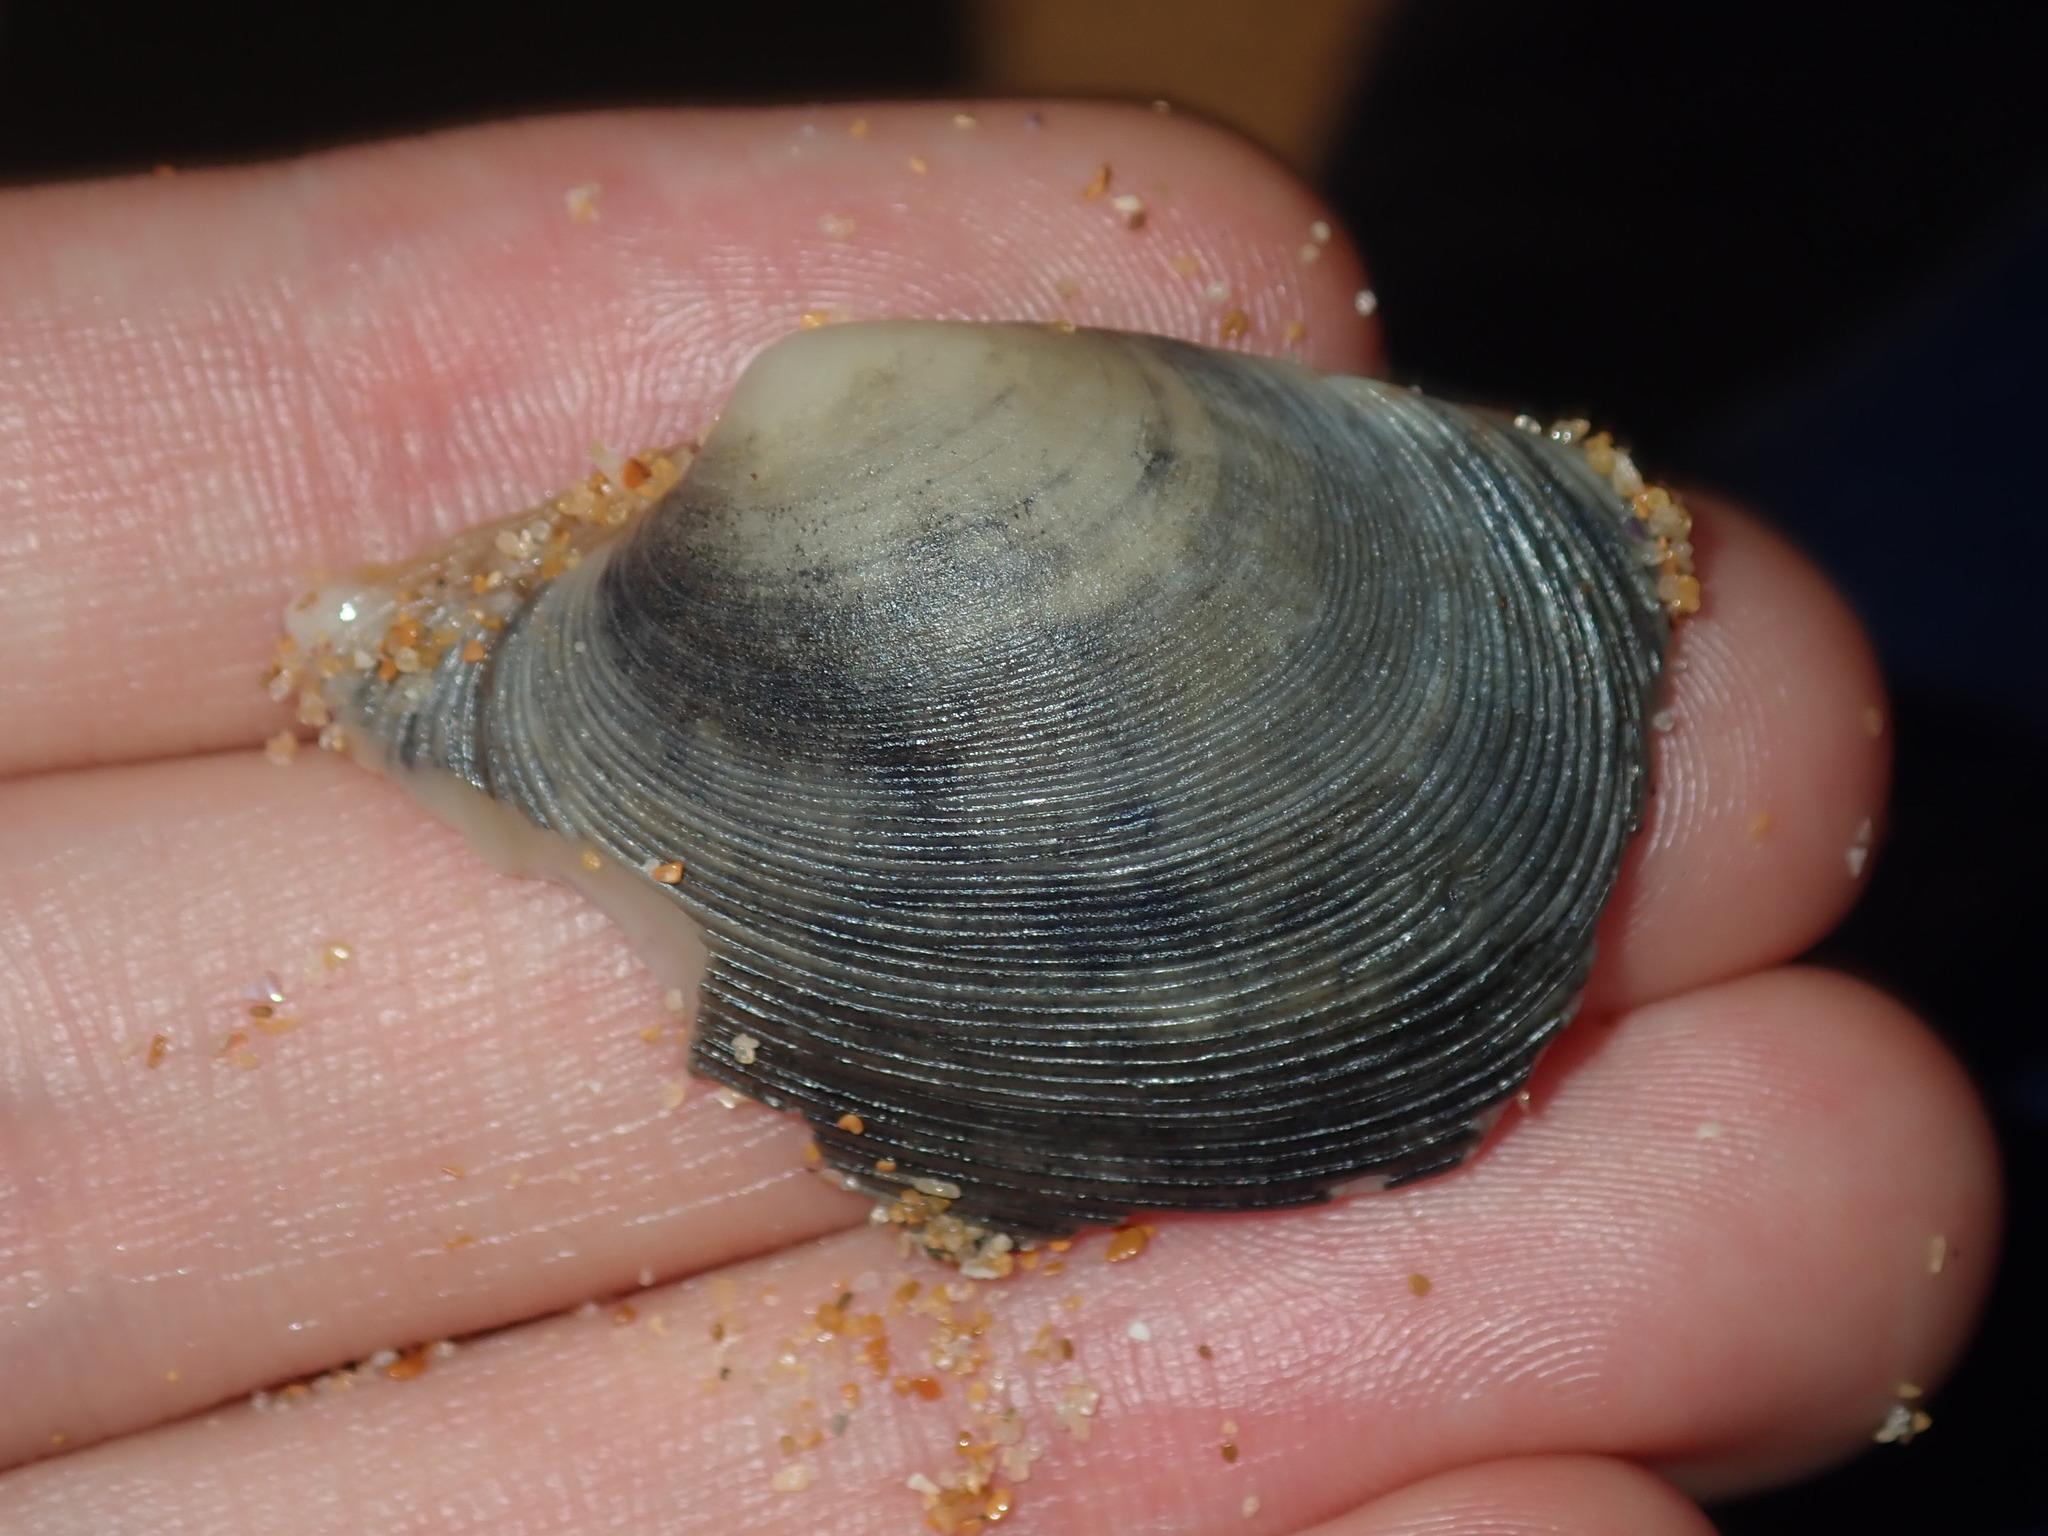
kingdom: Animalia
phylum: Mollusca
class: Bivalvia
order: Venerida
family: Veneridae
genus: Tapes
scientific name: Tapes conspersus
